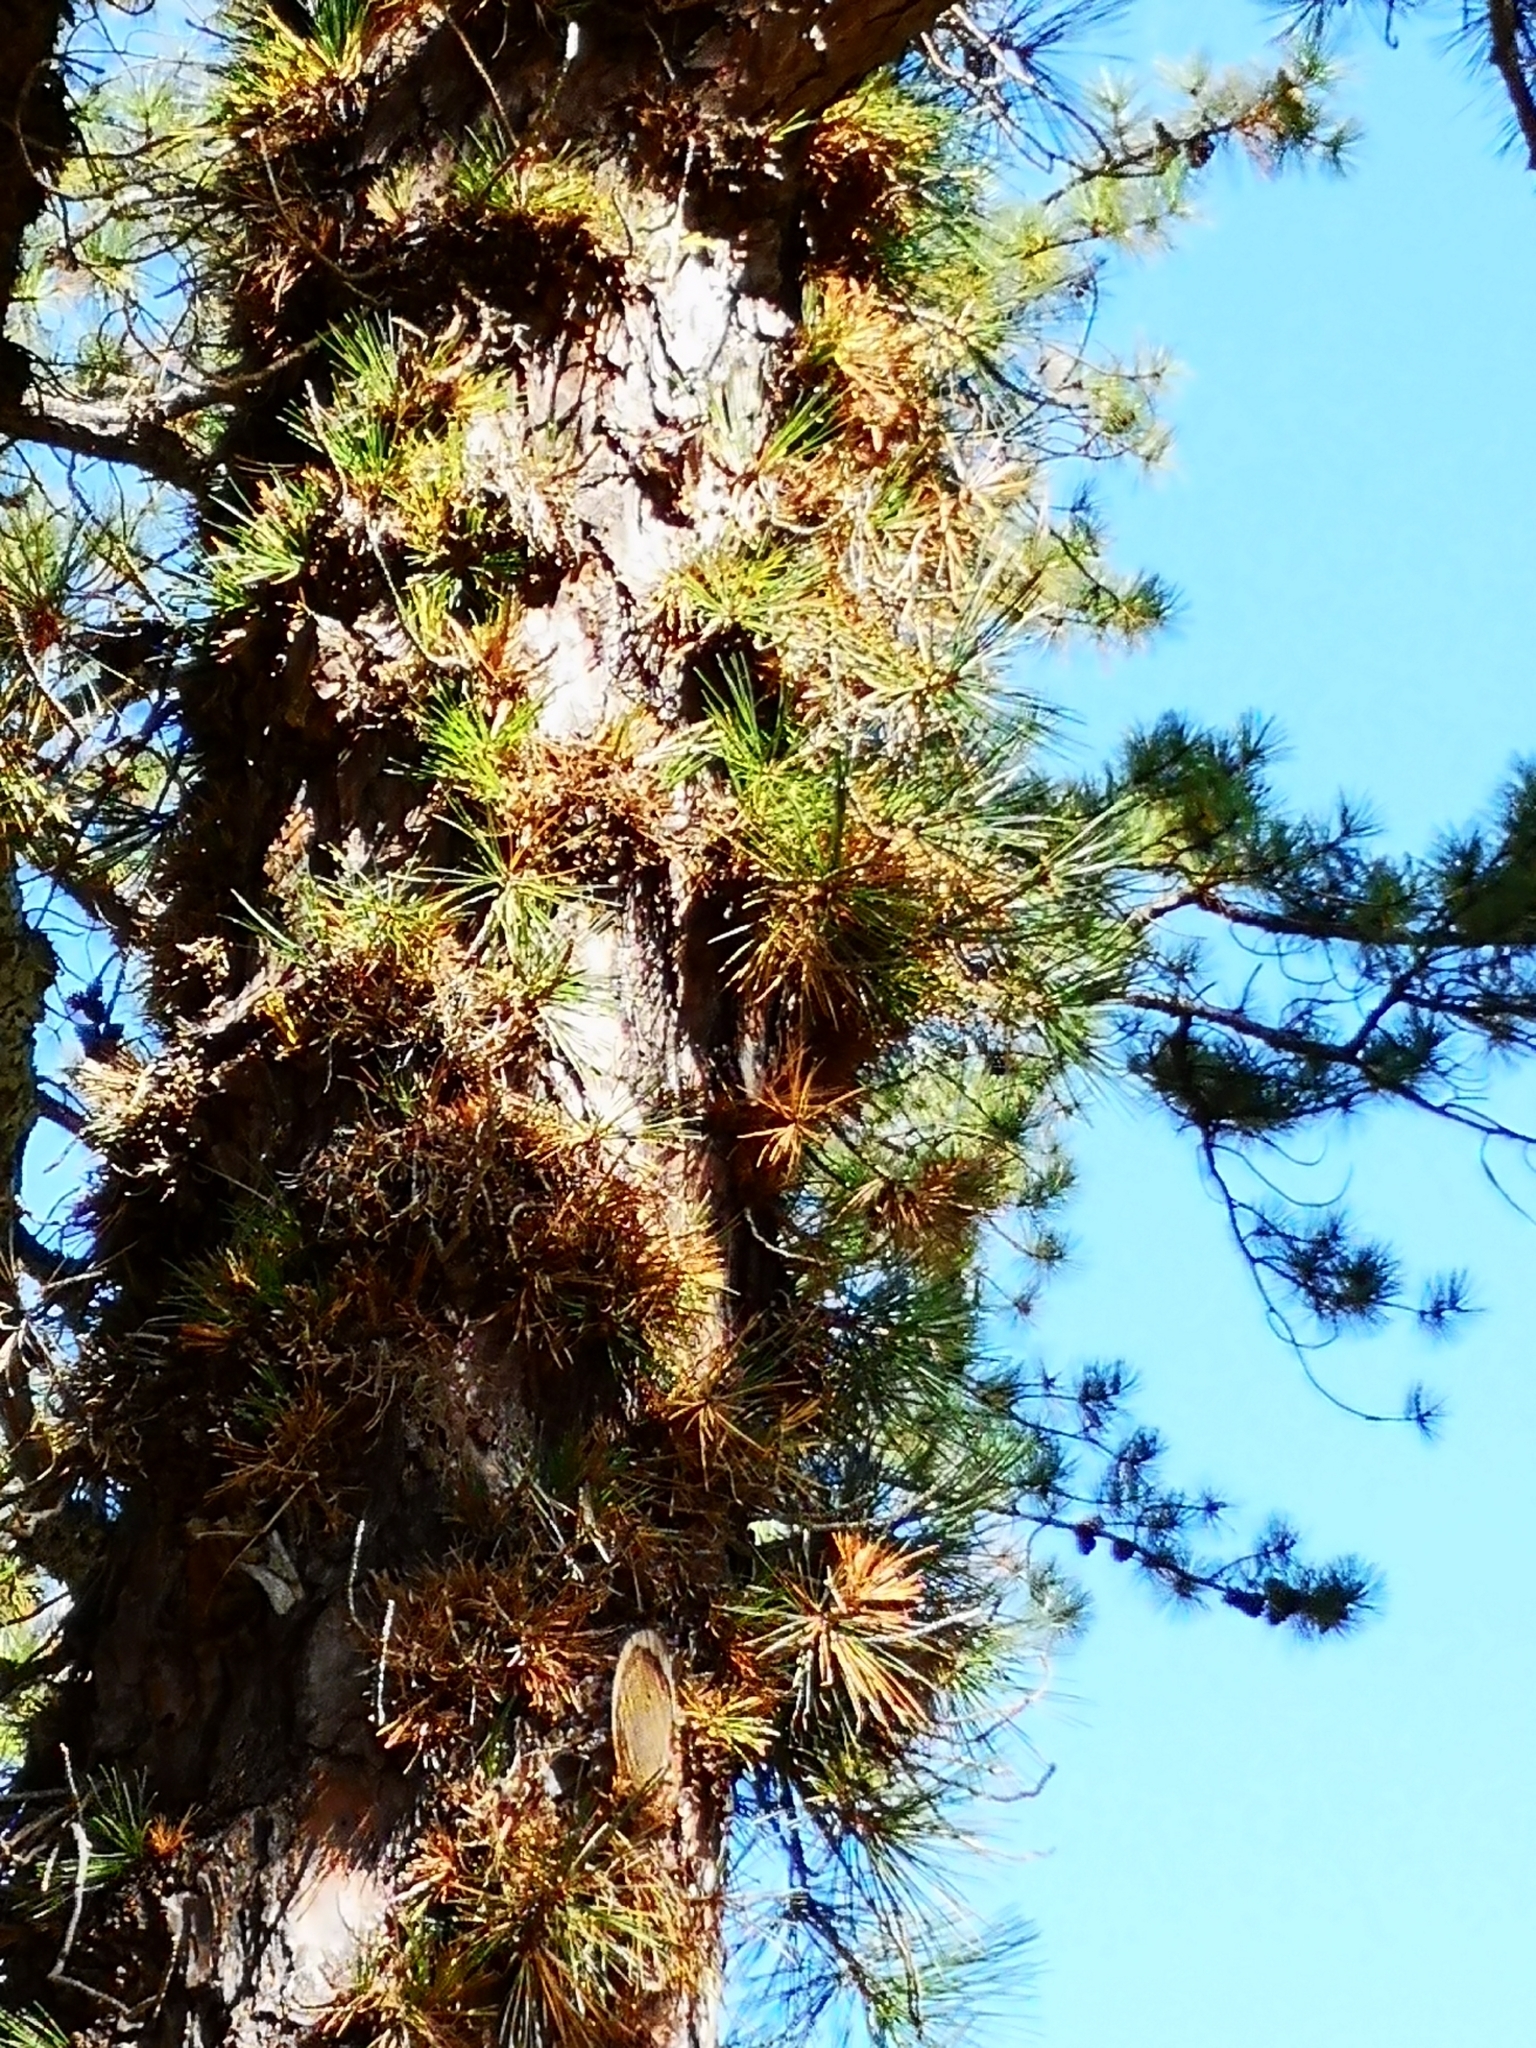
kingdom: Plantae
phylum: Tracheophyta
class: Pinopsida
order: Pinales
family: Pinaceae
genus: Pinus
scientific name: Pinus rigida
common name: Pitch pine
